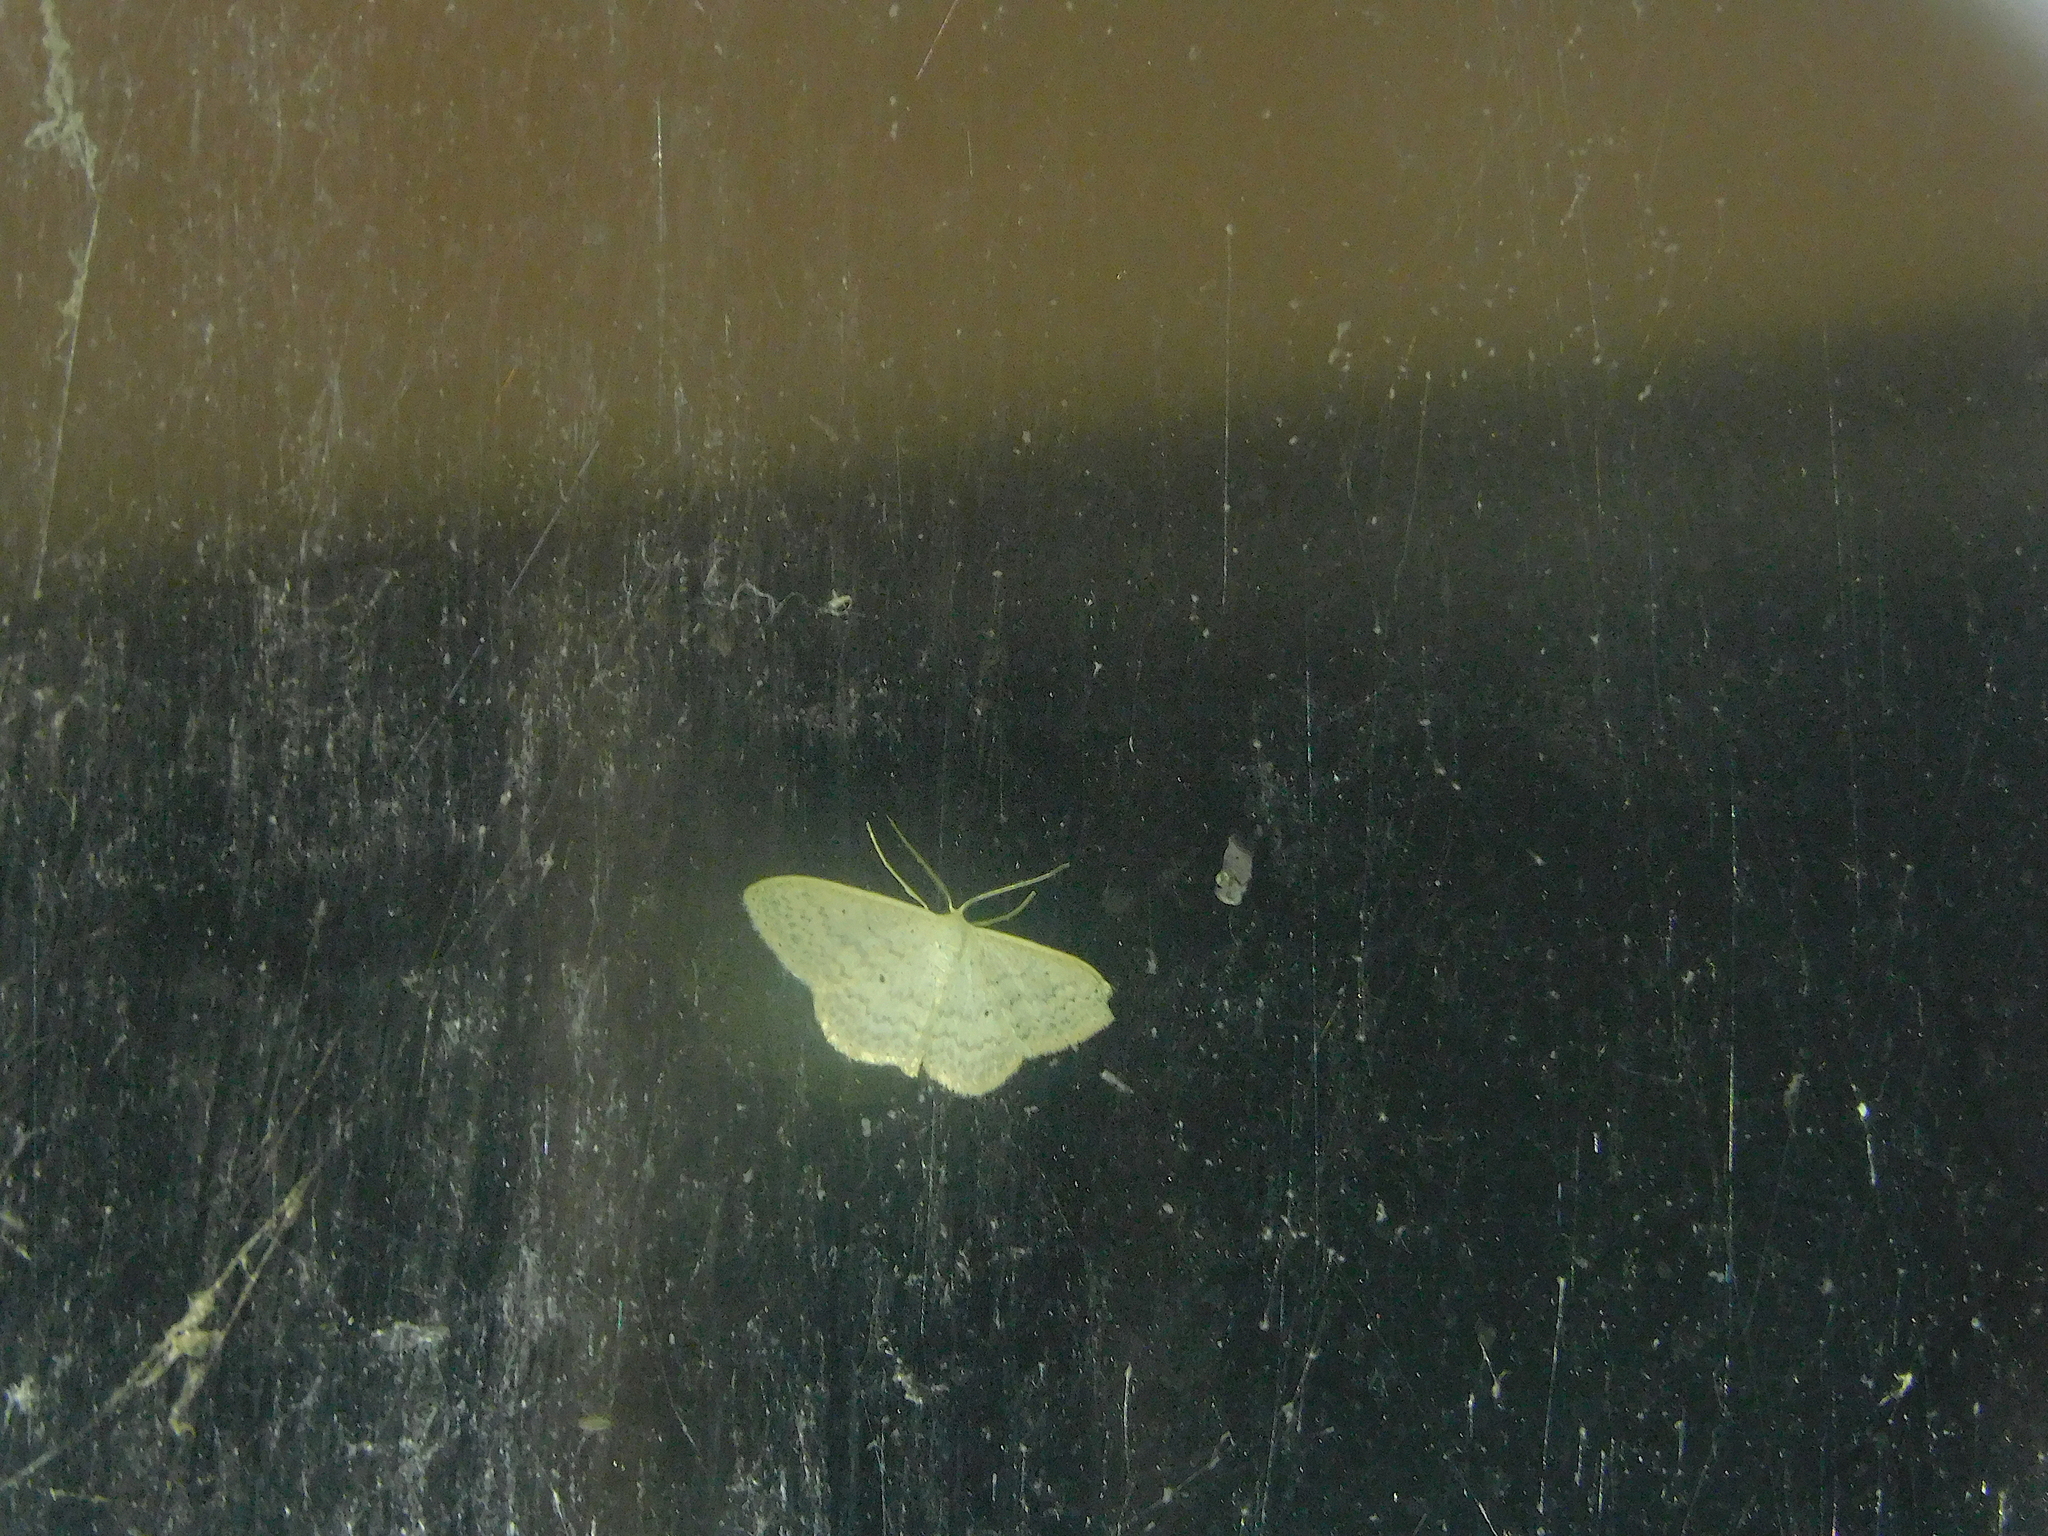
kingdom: Animalia
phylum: Arthropoda
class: Insecta
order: Lepidoptera
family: Geometridae
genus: Scopula
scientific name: Scopula optivata
